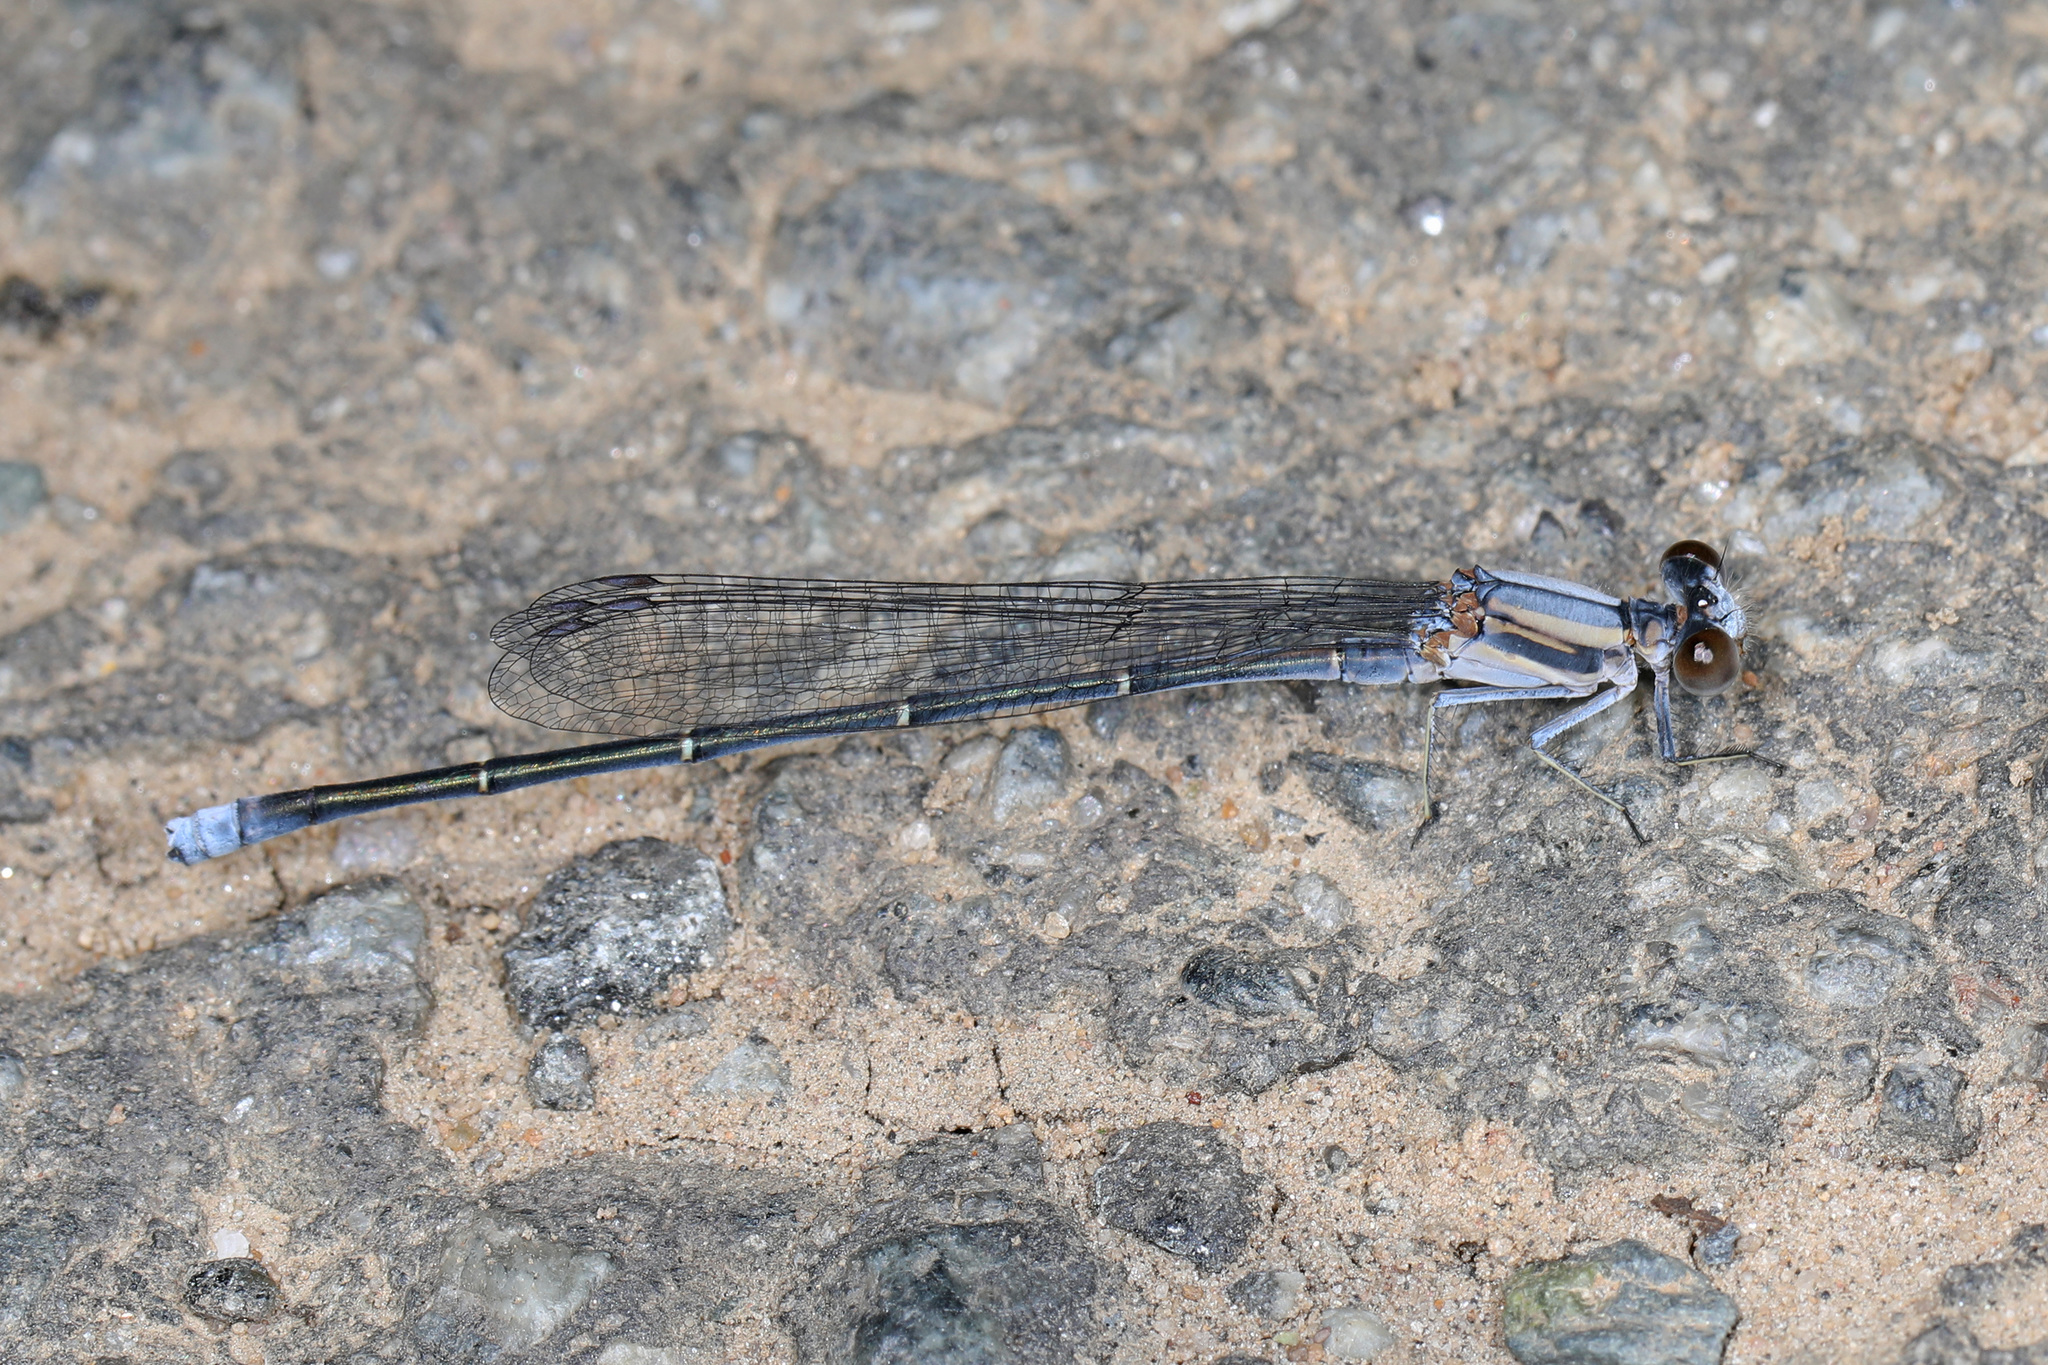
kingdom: Animalia
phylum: Arthropoda
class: Insecta
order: Odonata
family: Coenagrionidae
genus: Argia
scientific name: Argia moesta
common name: Powdered dancer
